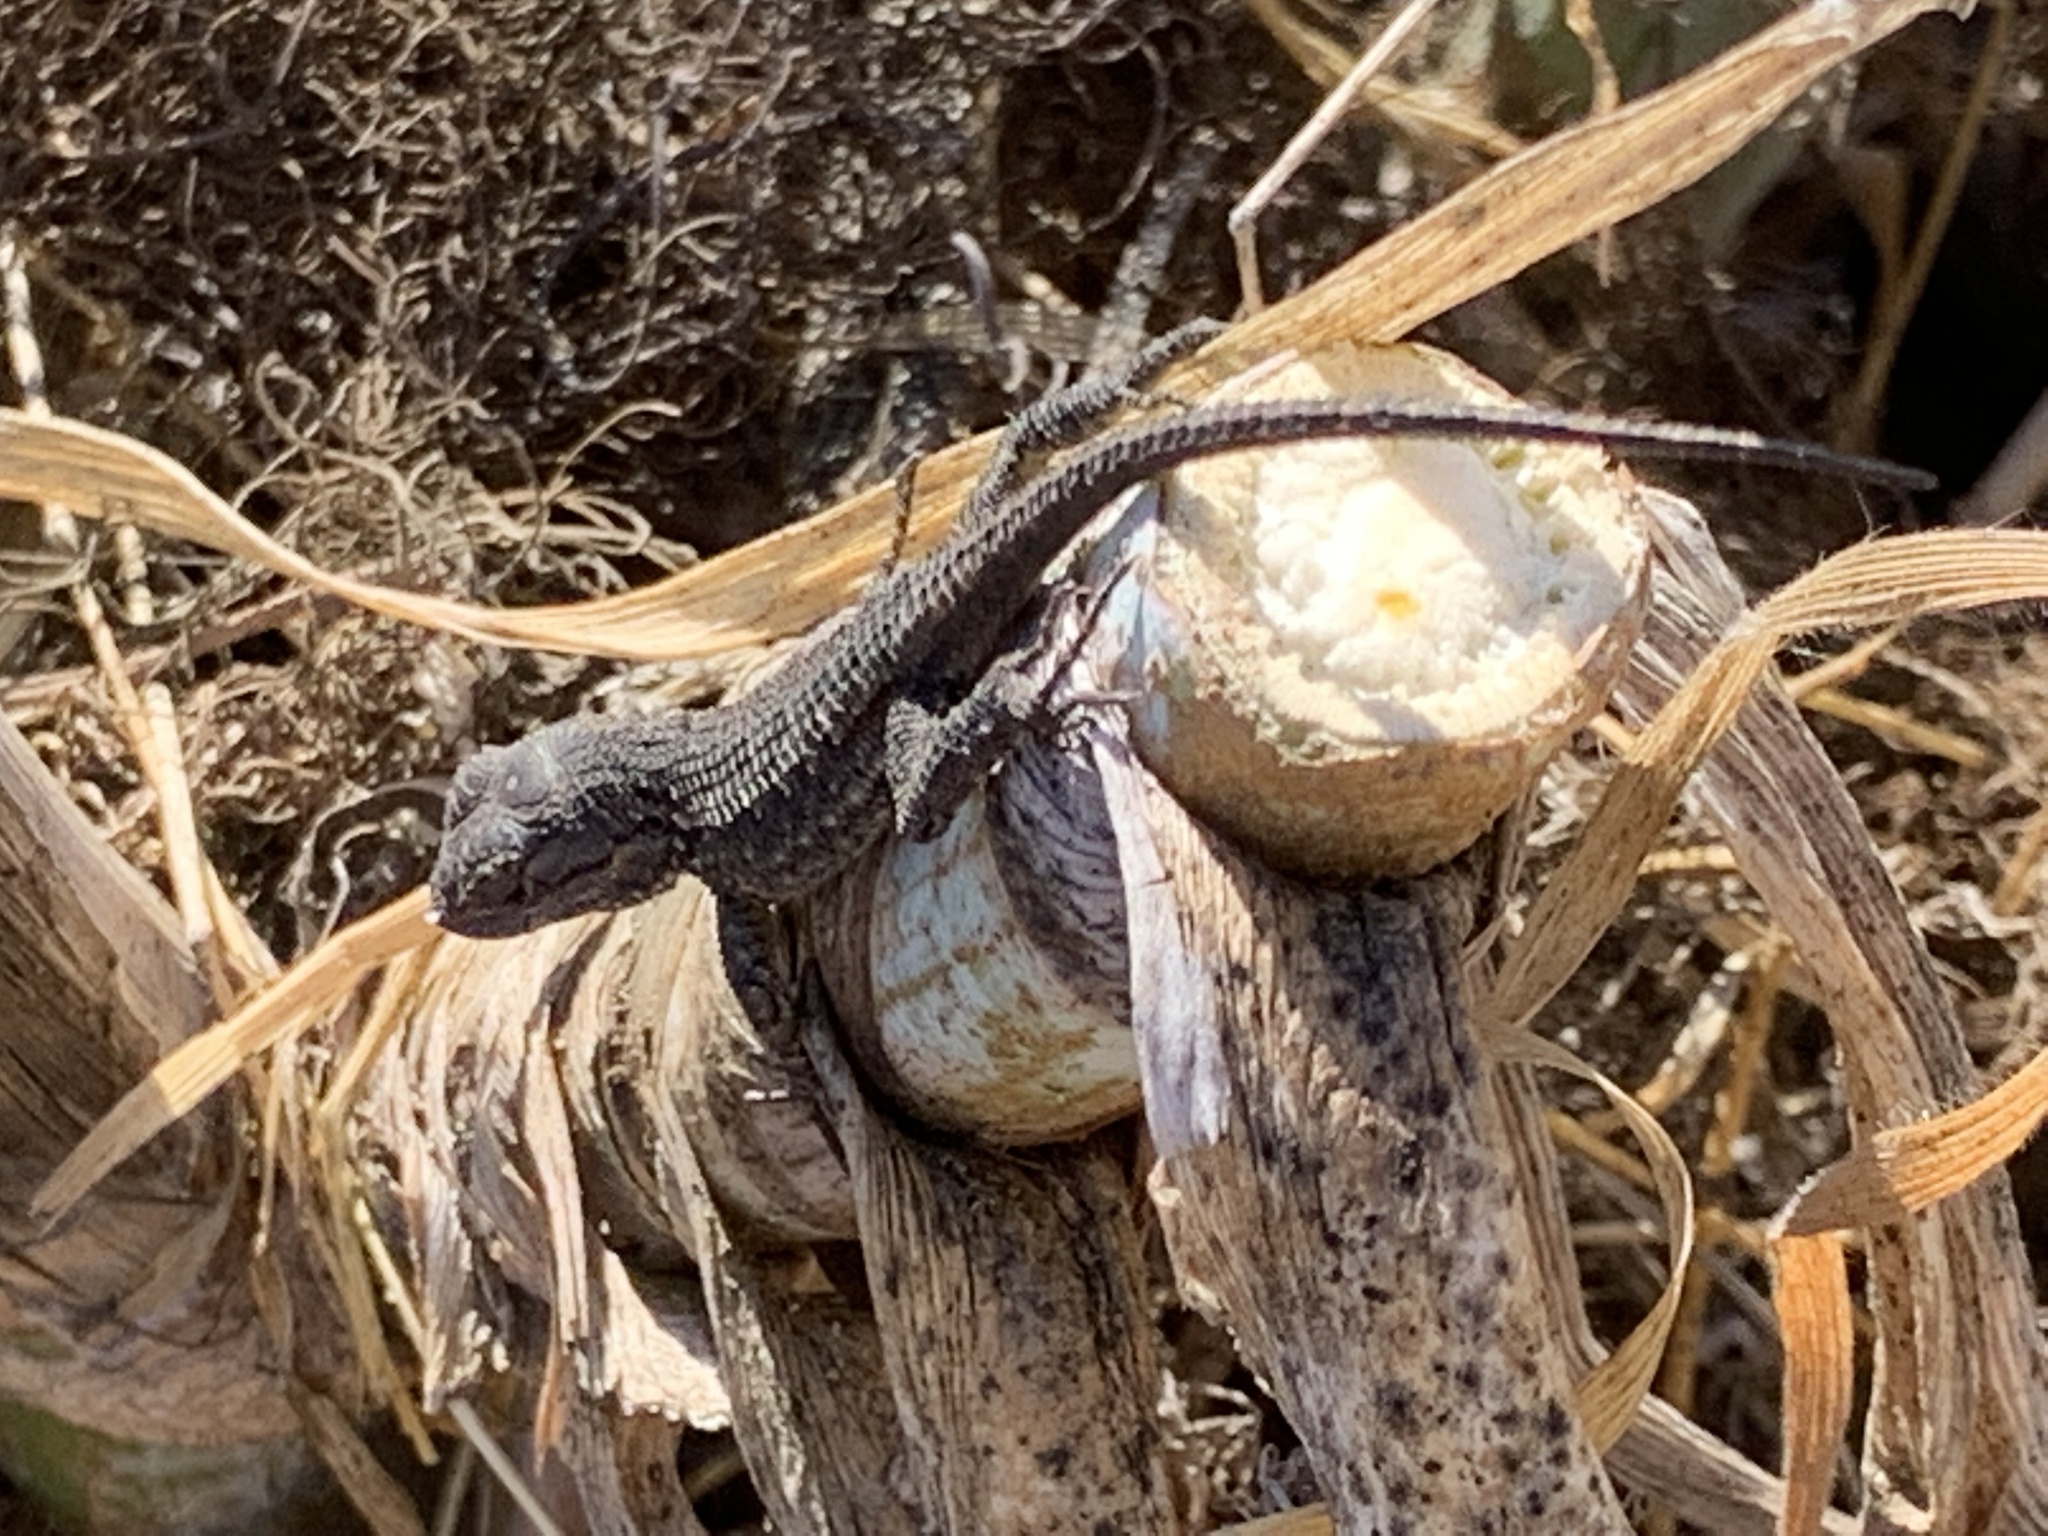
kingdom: Animalia
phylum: Chordata
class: Squamata
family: Phrynosomatidae
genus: Sceloporus
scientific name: Sceloporus occidentalis
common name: Western fence lizard
